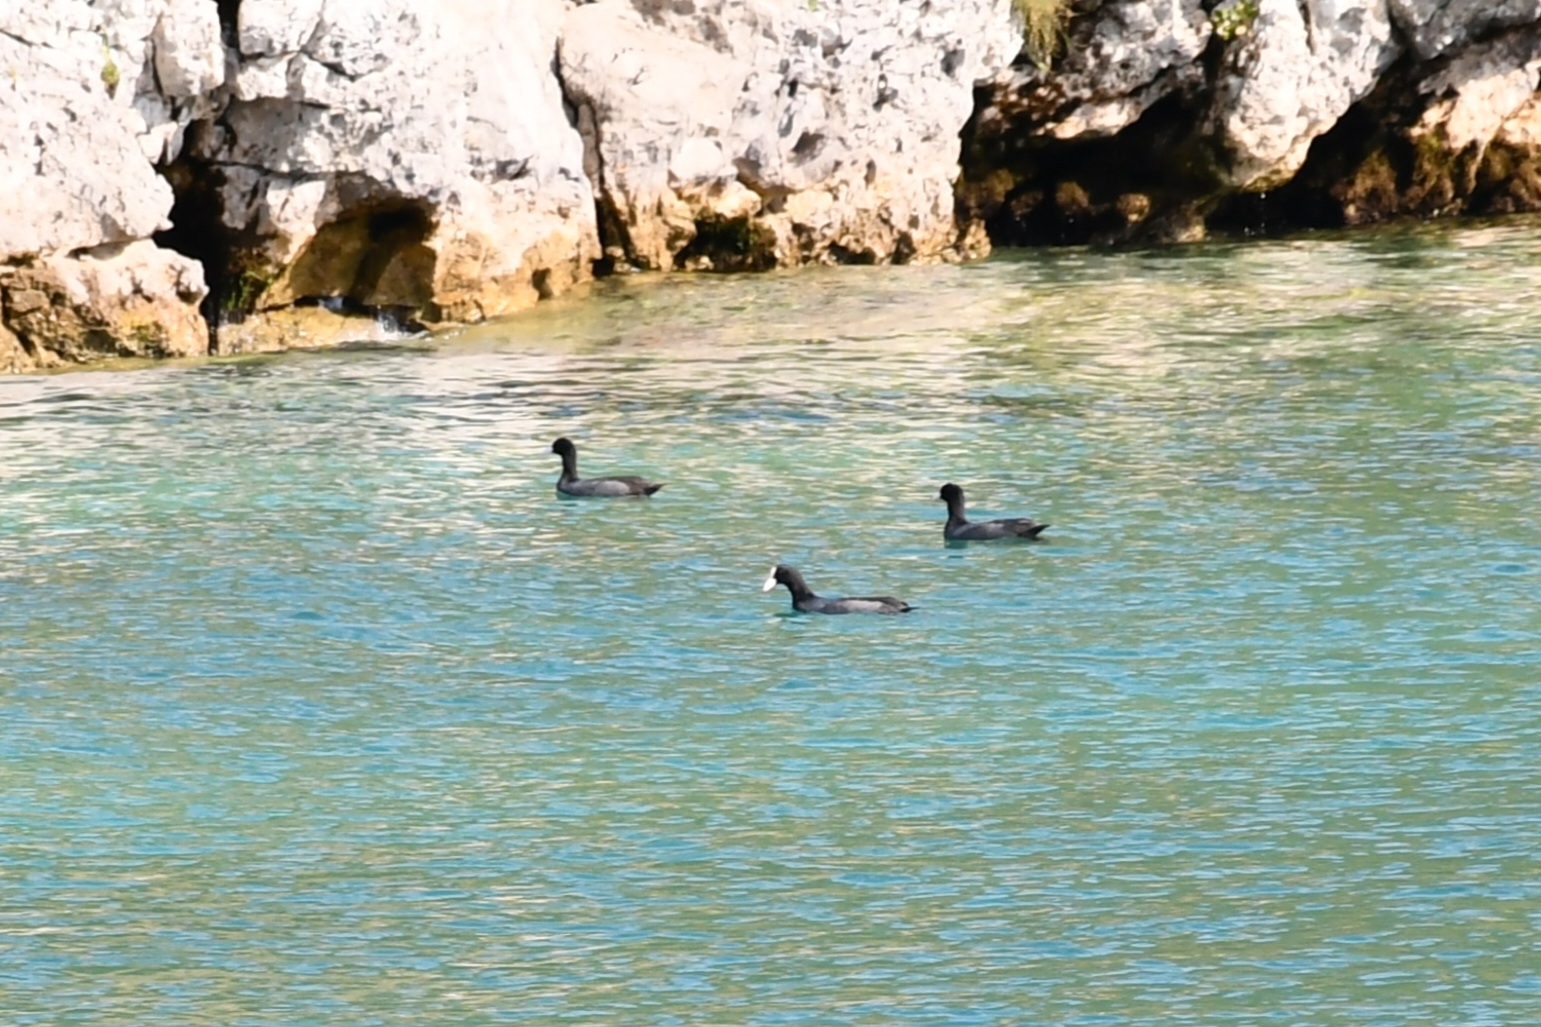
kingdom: Animalia
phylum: Chordata
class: Aves
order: Gruiformes
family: Rallidae
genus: Fulica
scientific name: Fulica atra
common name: Eurasian coot
